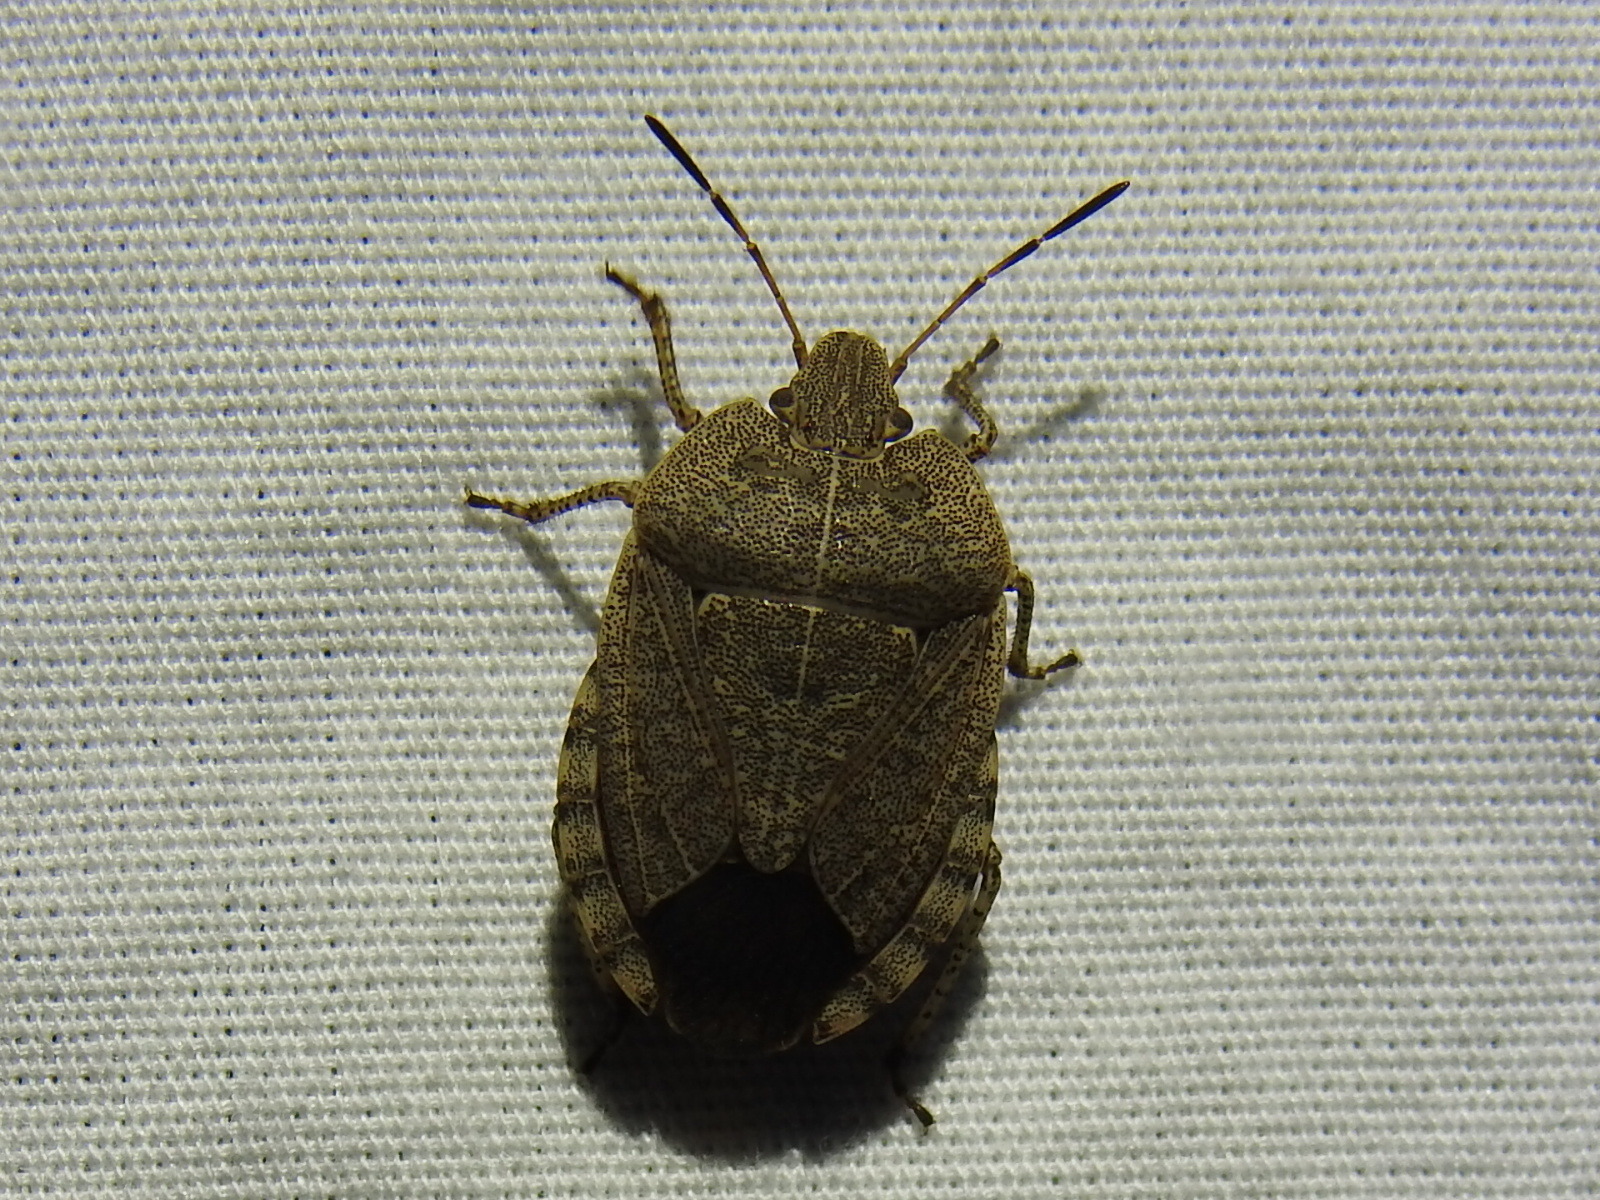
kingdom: Animalia
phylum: Arthropoda
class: Insecta
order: Hemiptera
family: Pentatomidae
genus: Menecles
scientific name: Menecles insertus
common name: Elf shoe stink bug
